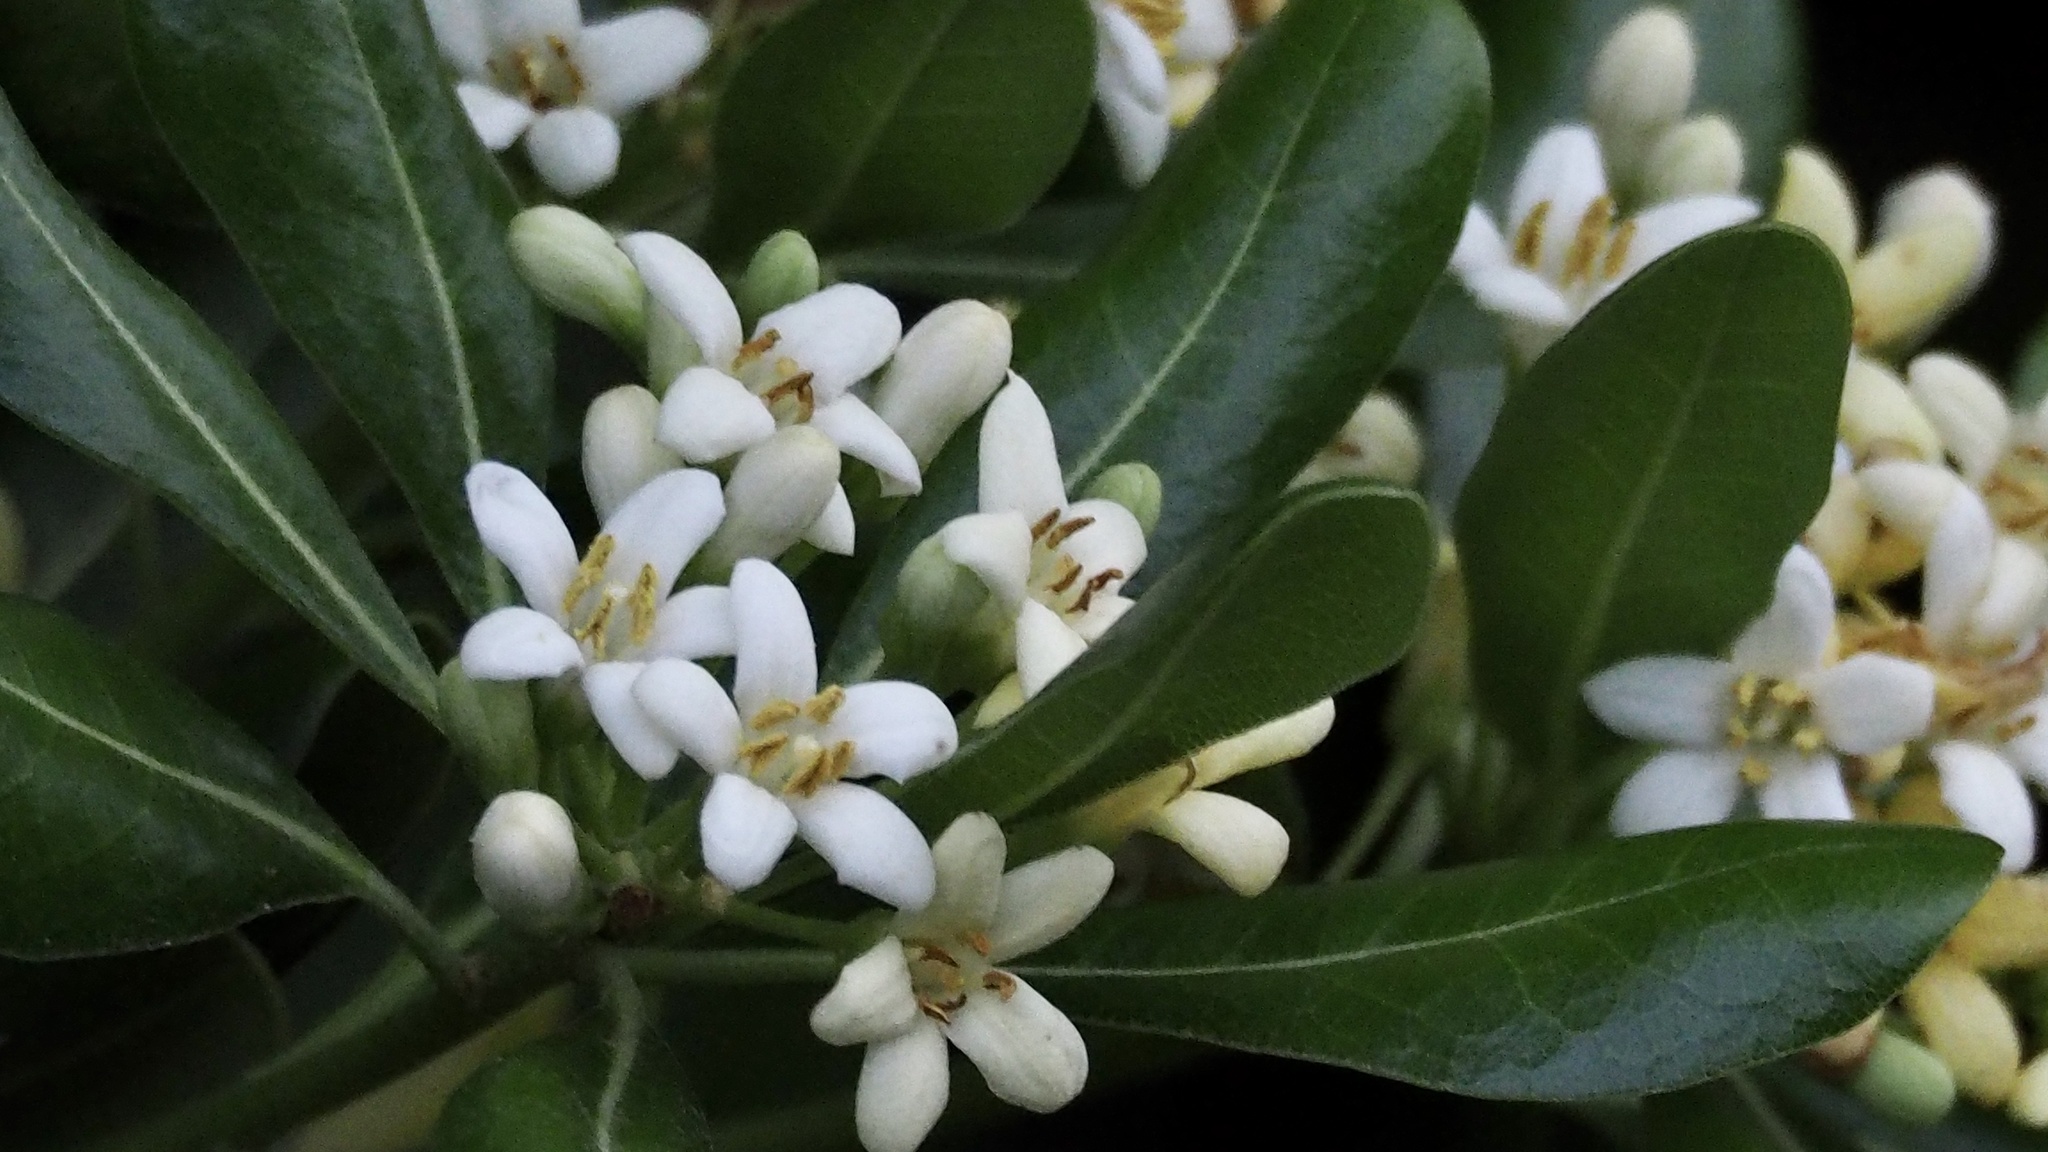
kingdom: Plantae
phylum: Tracheophyta
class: Magnoliopsida
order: Apiales
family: Pittosporaceae
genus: Pittosporum
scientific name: Pittosporum tobira
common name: Japanese cheesewood
